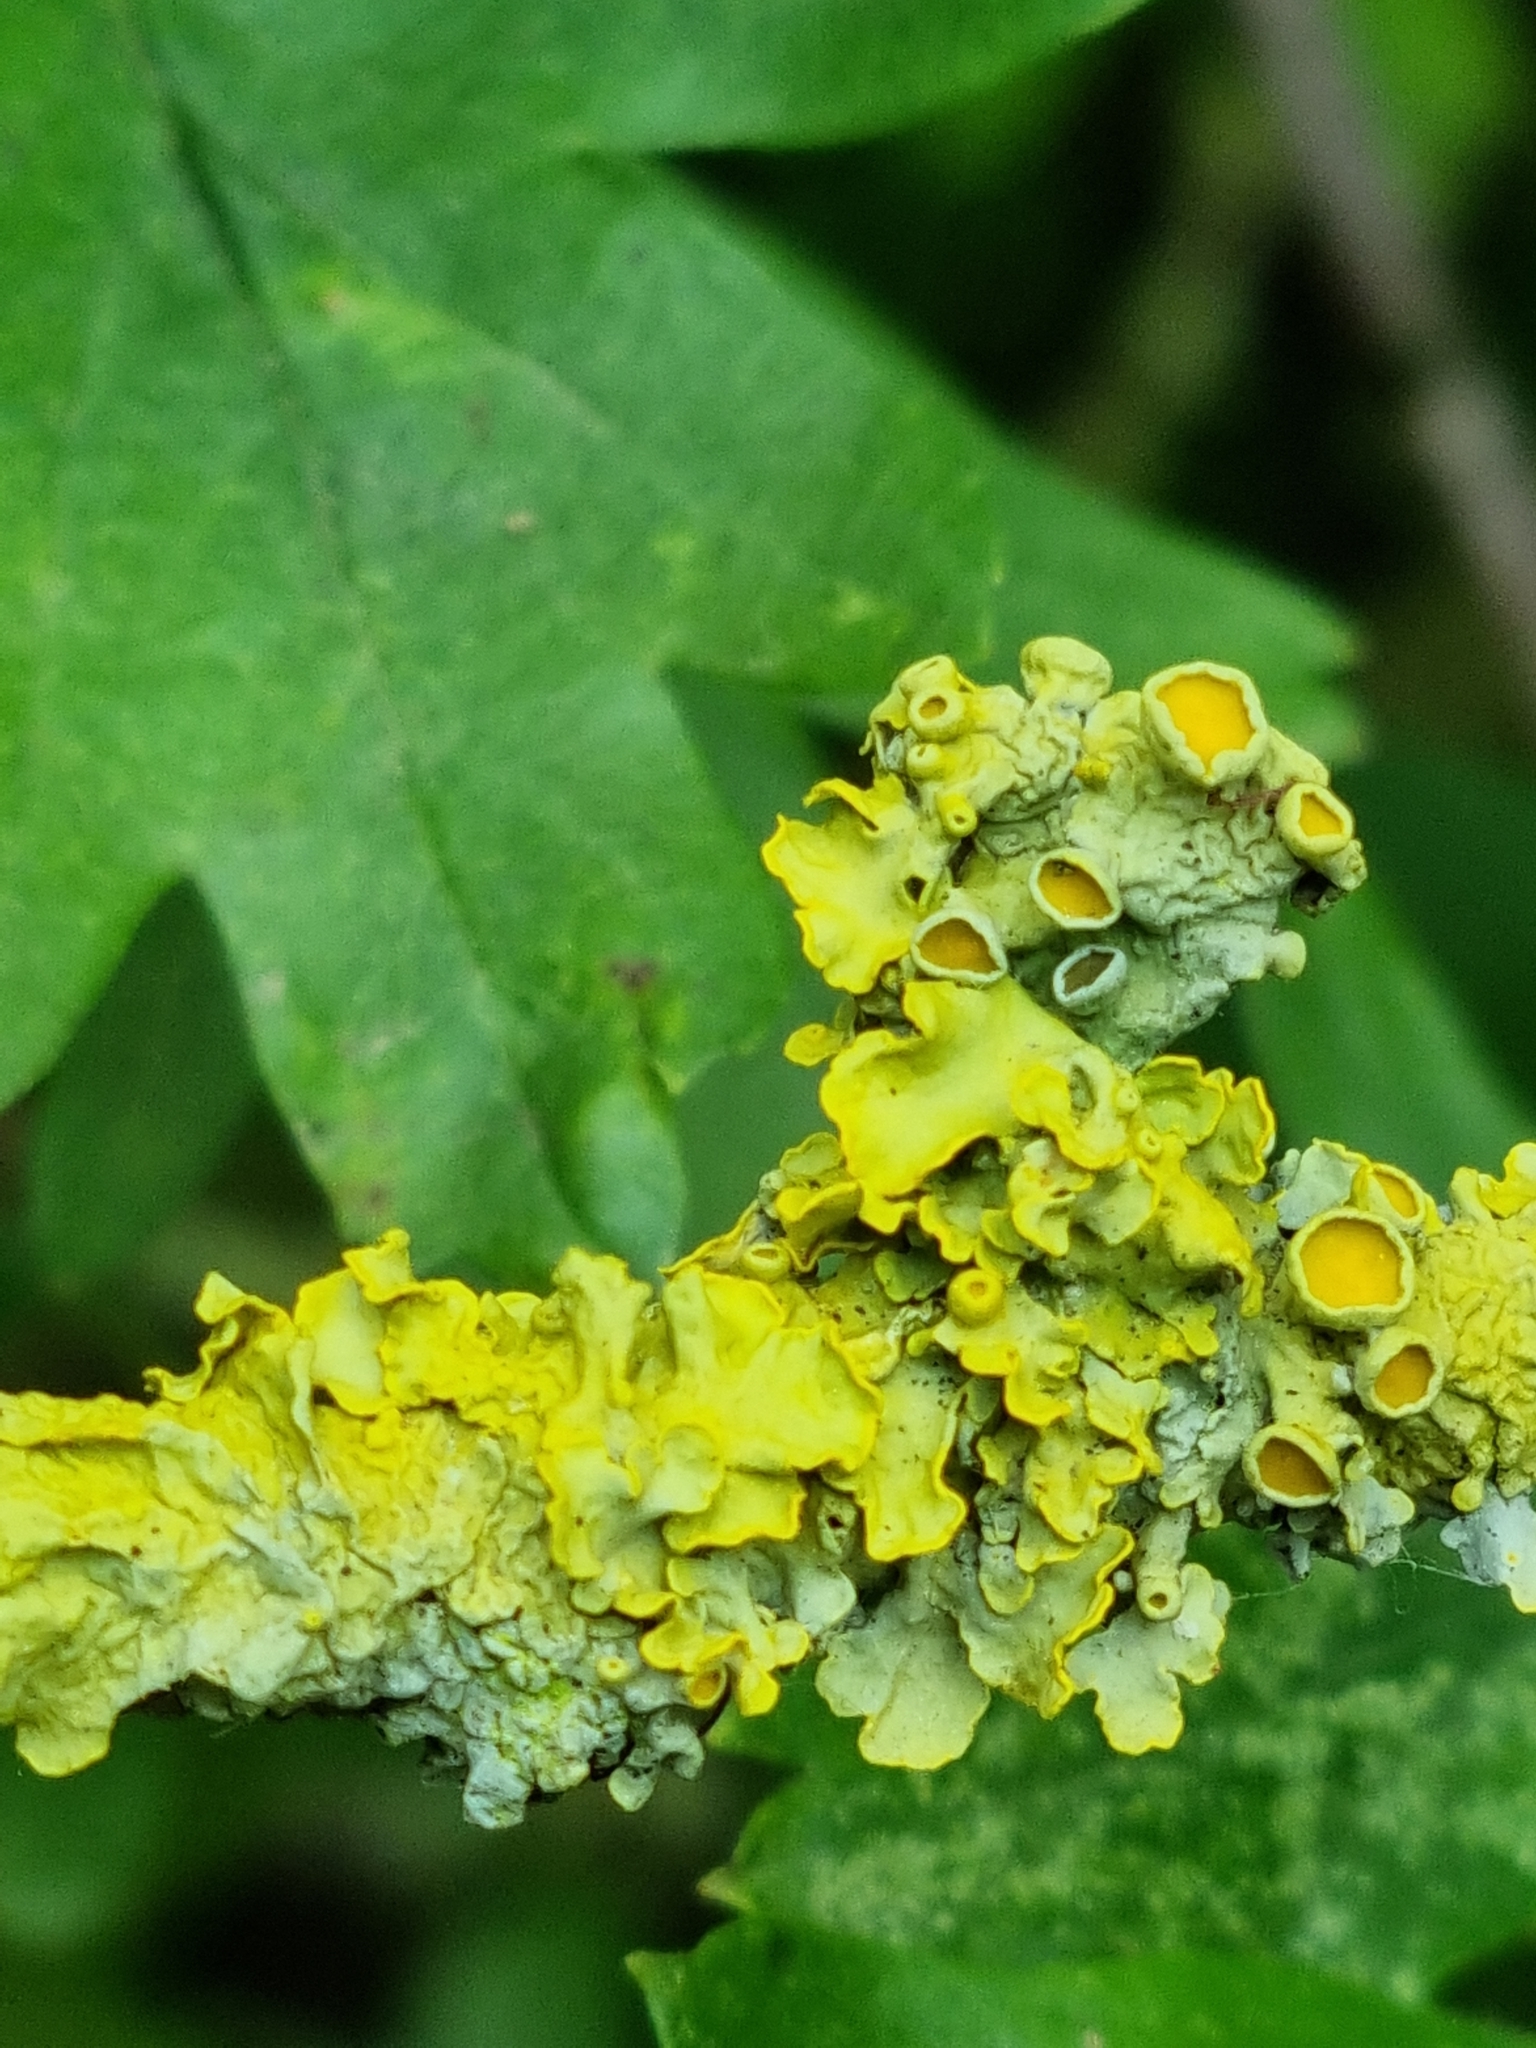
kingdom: Fungi
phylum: Ascomycota
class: Lecanoromycetes
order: Teloschistales
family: Teloschistaceae
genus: Xanthoria
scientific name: Xanthoria parietina
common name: Common orange lichen
